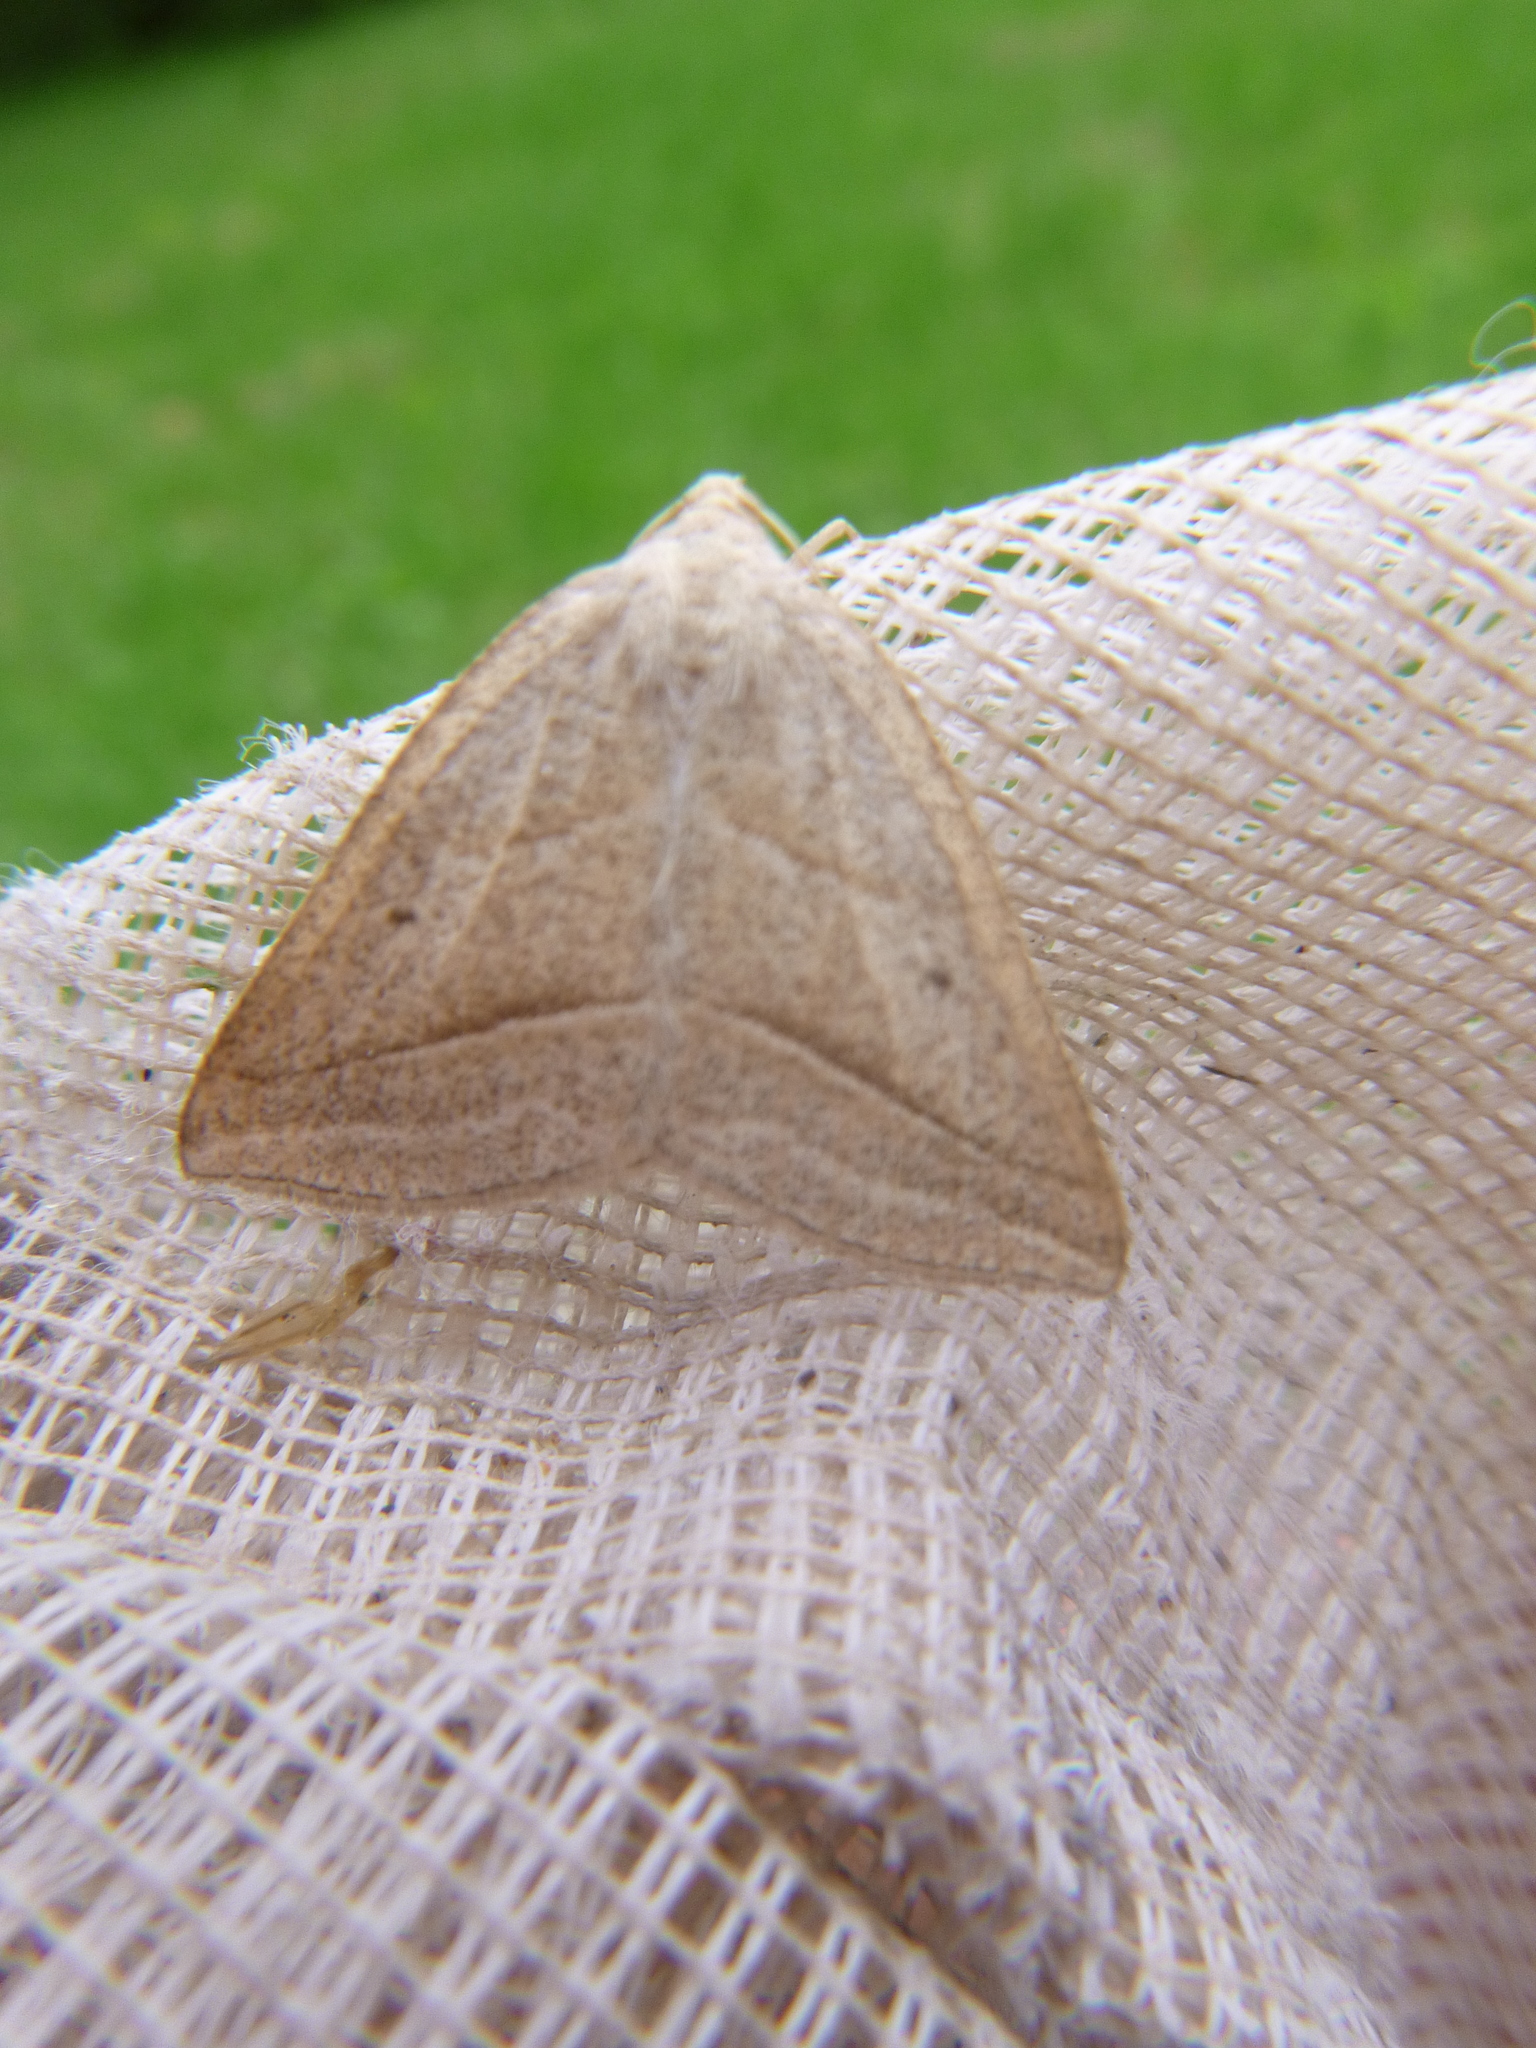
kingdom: Animalia
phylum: Arthropoda
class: Insecta
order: Lepidoptera
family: Pterophoridae
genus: Pterophorus
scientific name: Pterophorus Petrophora chlorosata
